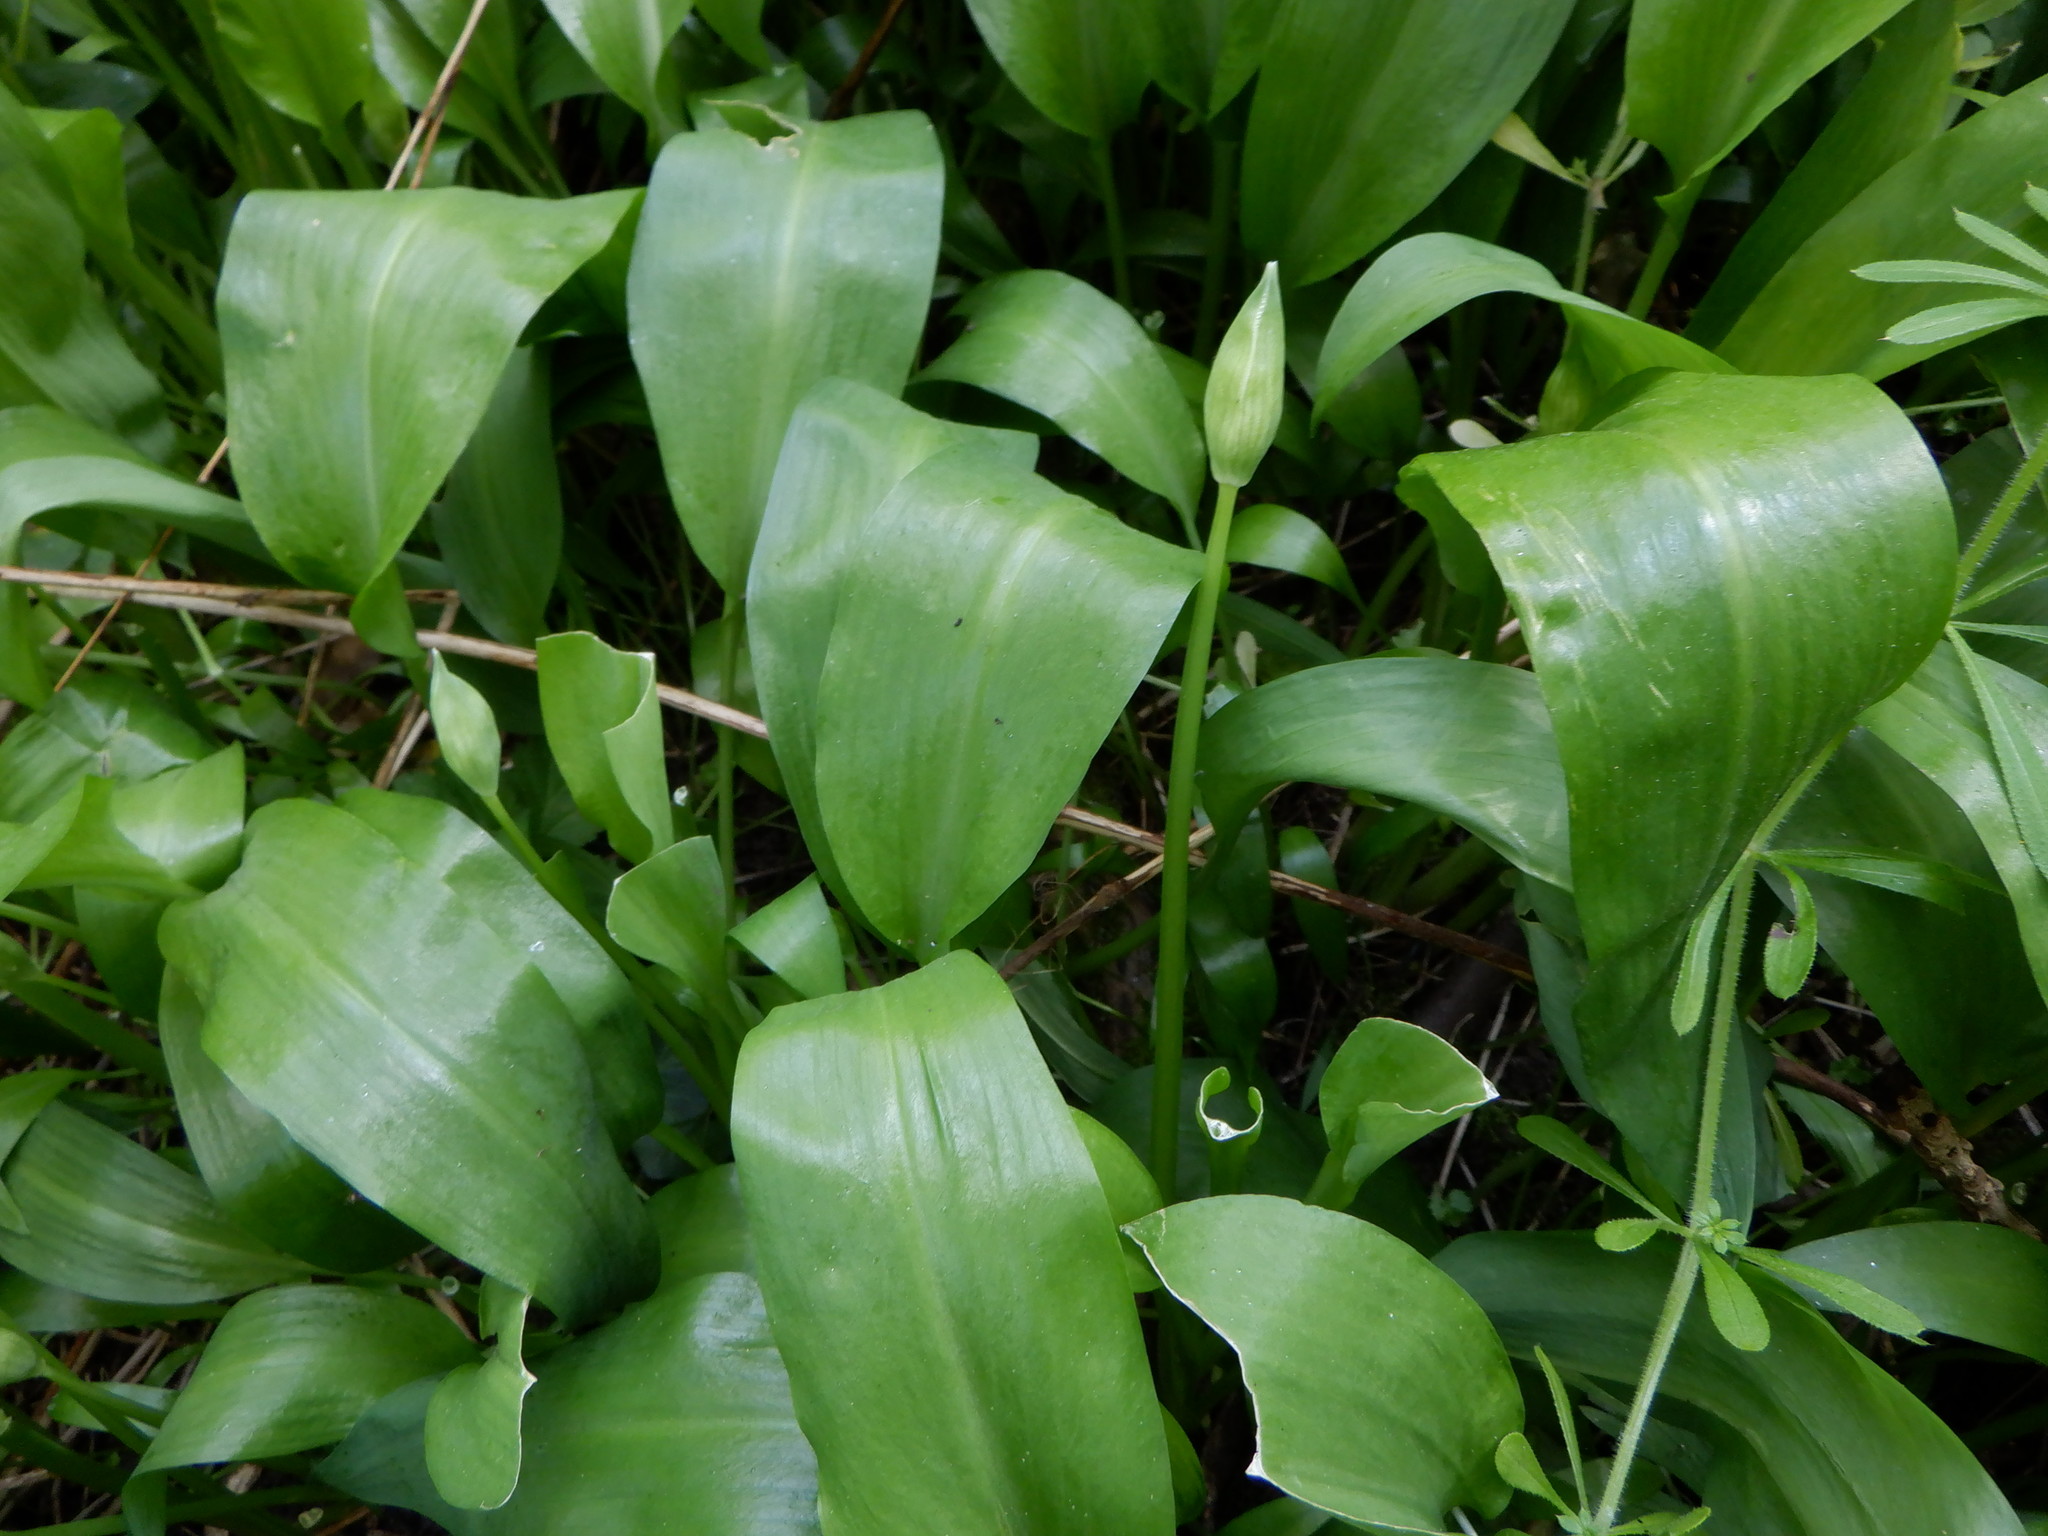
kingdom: Plantae
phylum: Tracheophyta
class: Liliopsida
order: Asparagales
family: Amaryllidaceae
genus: Allium
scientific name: Allium ursinum
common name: Ramsons
